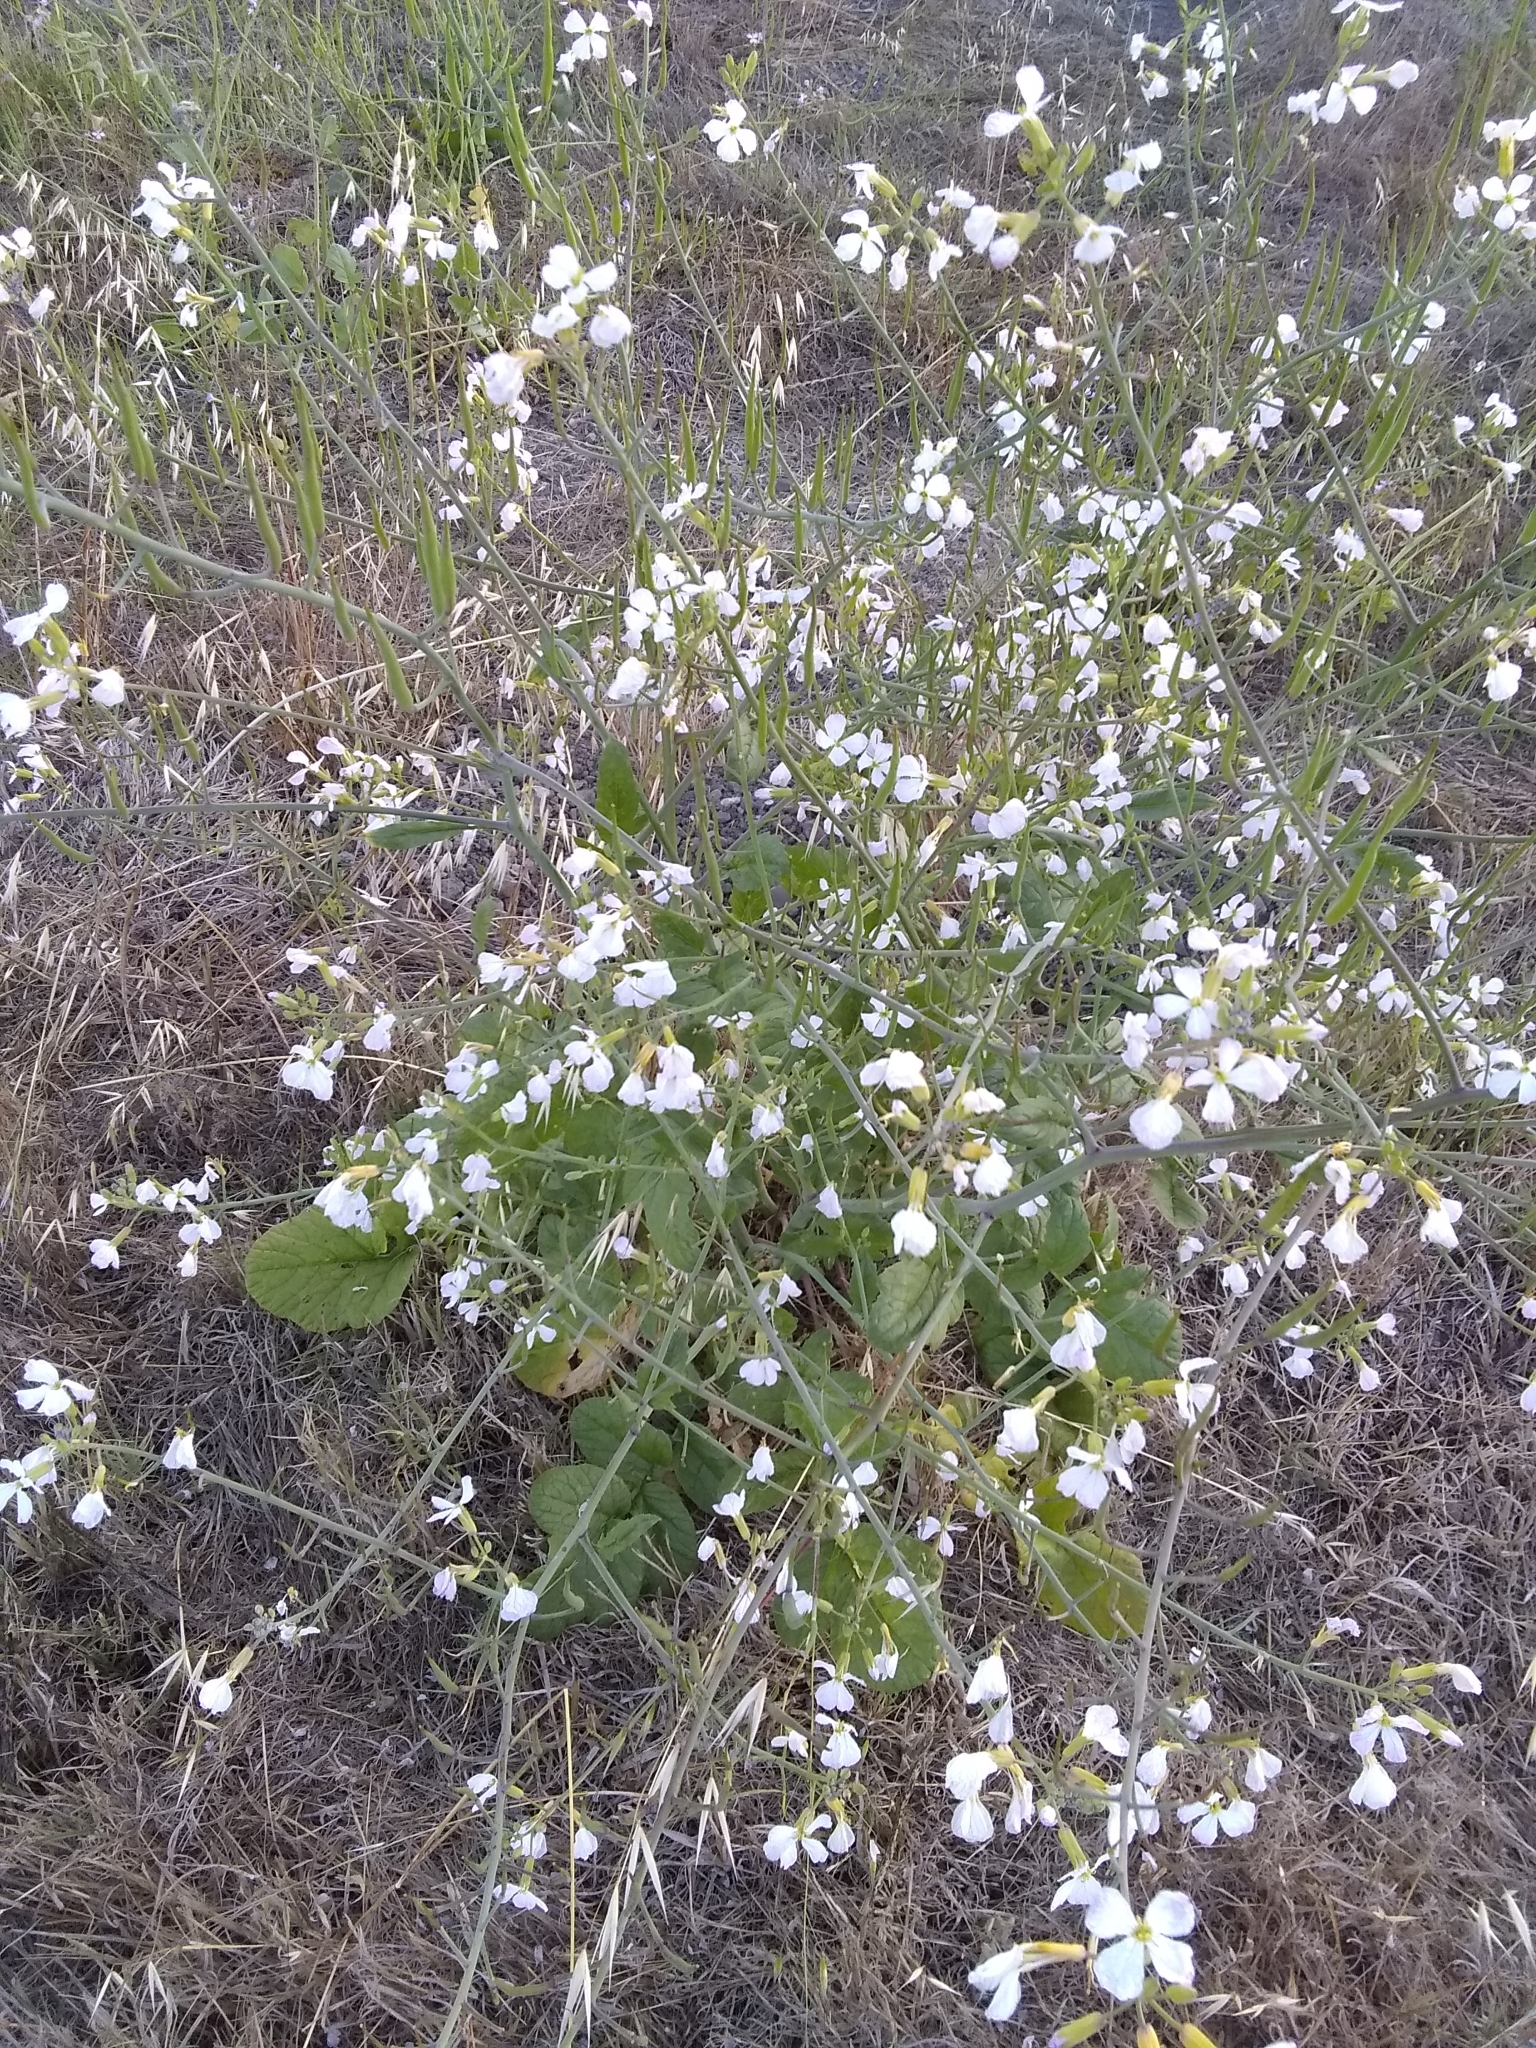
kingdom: Plantae
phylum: Tracheophyta
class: Magnoliopsida
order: Brassicales
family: Brassicaceae
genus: Raphanus
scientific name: Raphanus sativus
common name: Cultivated radish
